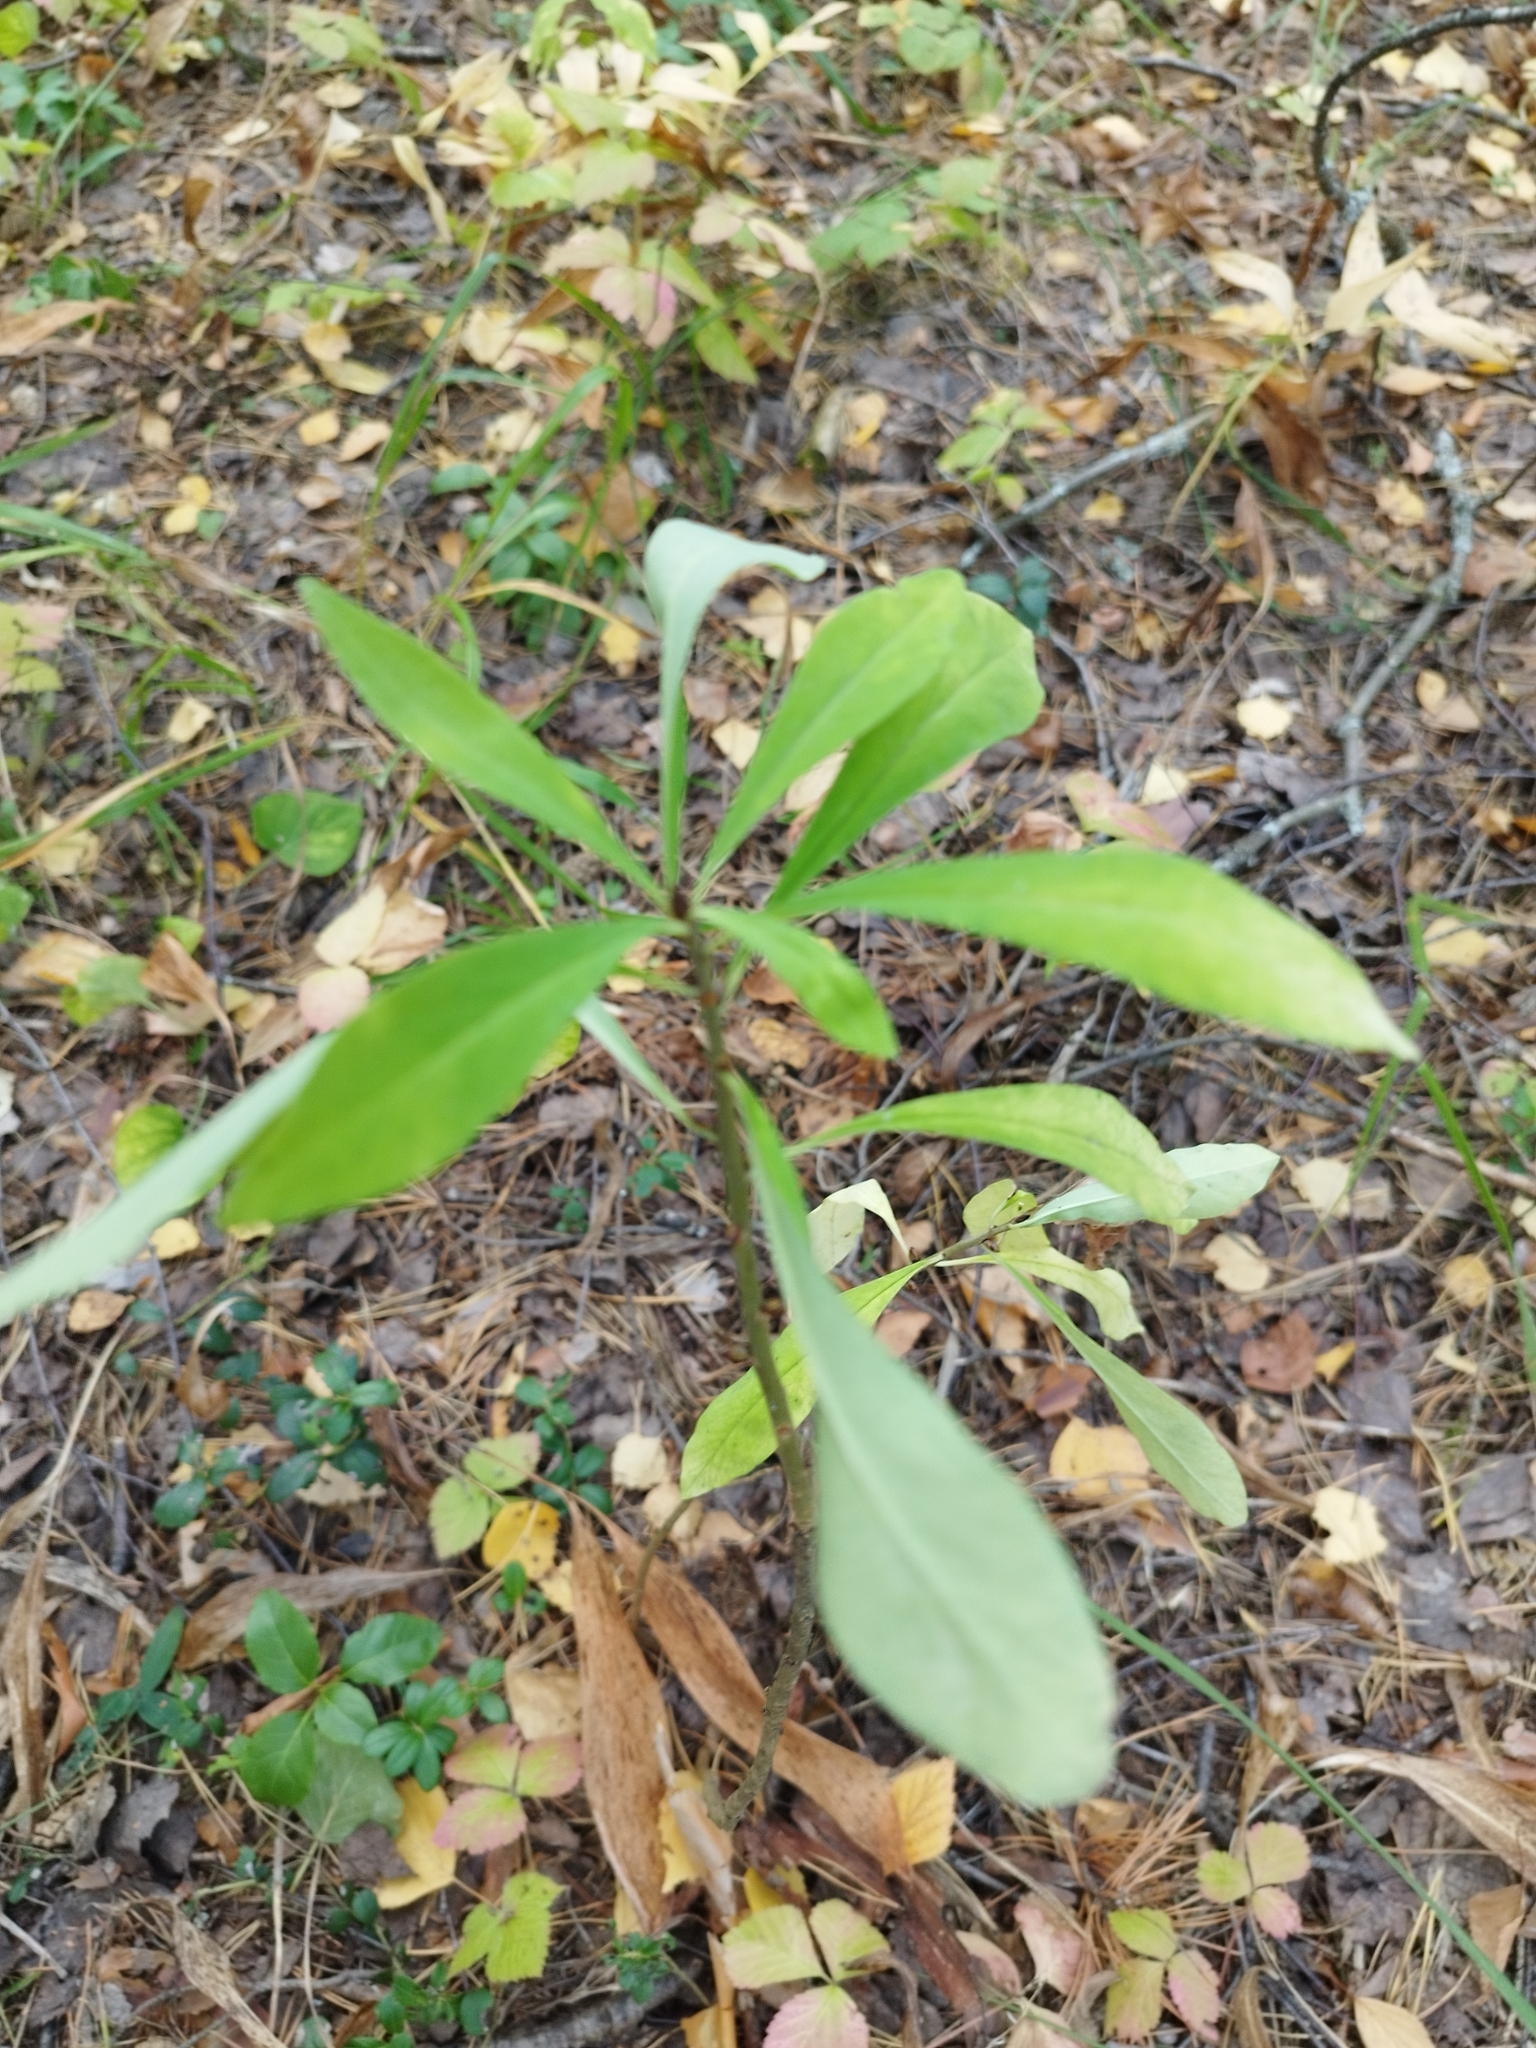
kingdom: Plantae
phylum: Tracheophyta
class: Magnoliopsida
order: Malvales
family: Thymelaeaceae
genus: Daphne
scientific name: Daphne mezereum
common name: Mezereon
